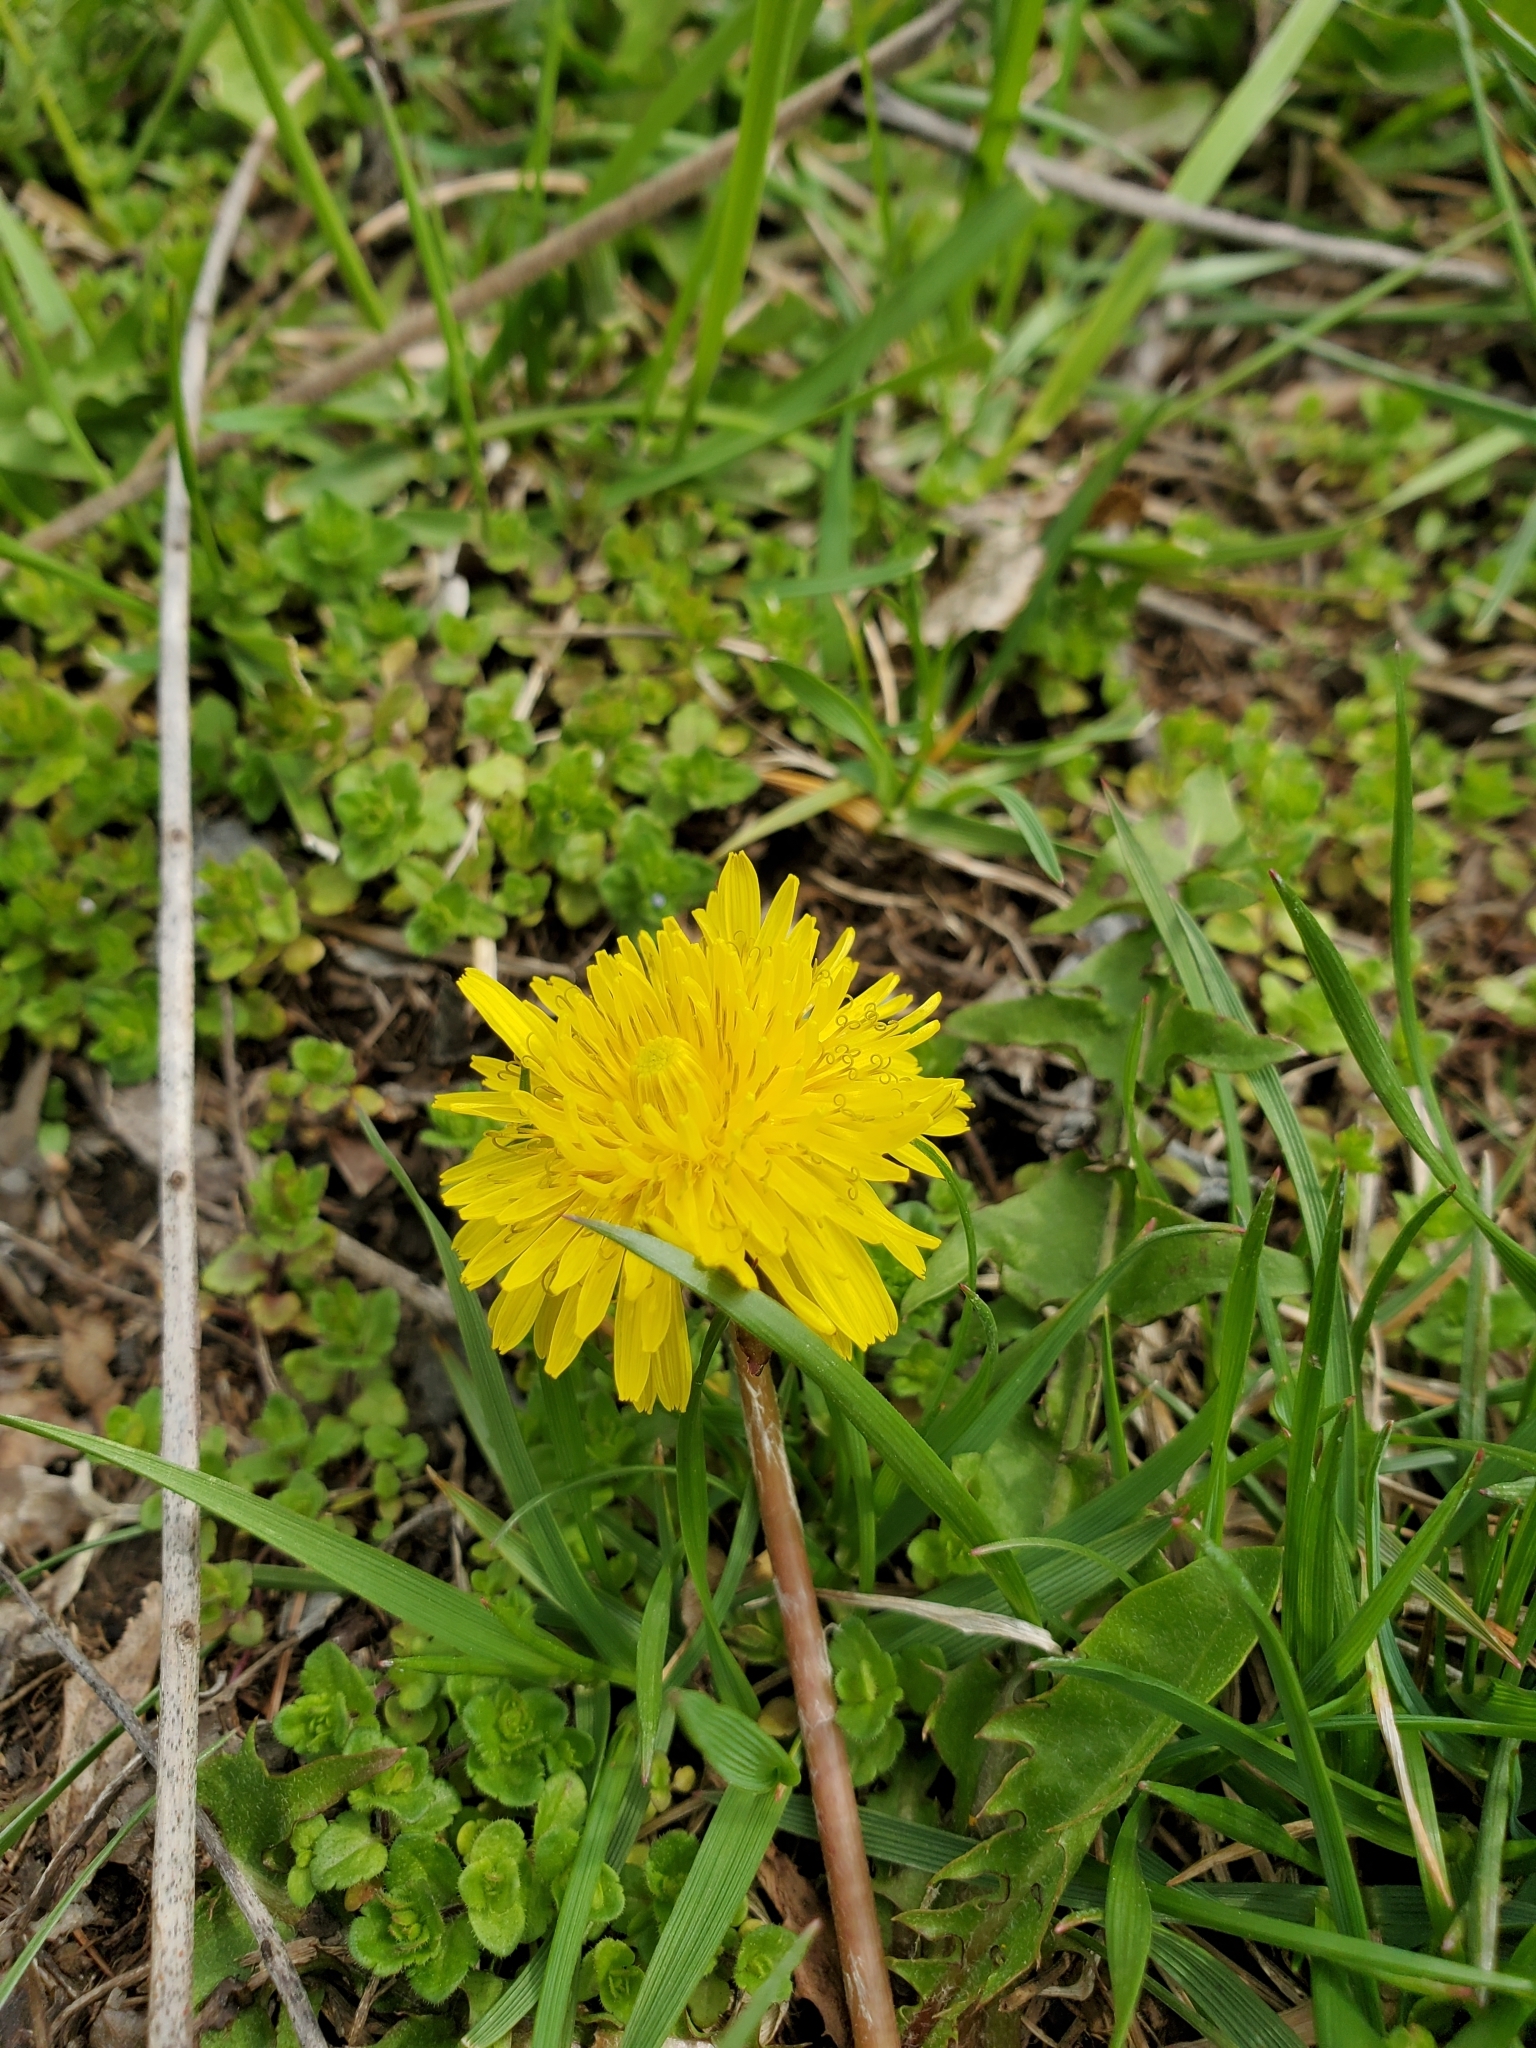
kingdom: Plantae
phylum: Tracheophyta
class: Magnoliopsida
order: Asterales
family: Asteraceae
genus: Taraxacum
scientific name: Taraxacum officinale
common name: Common dandelion
